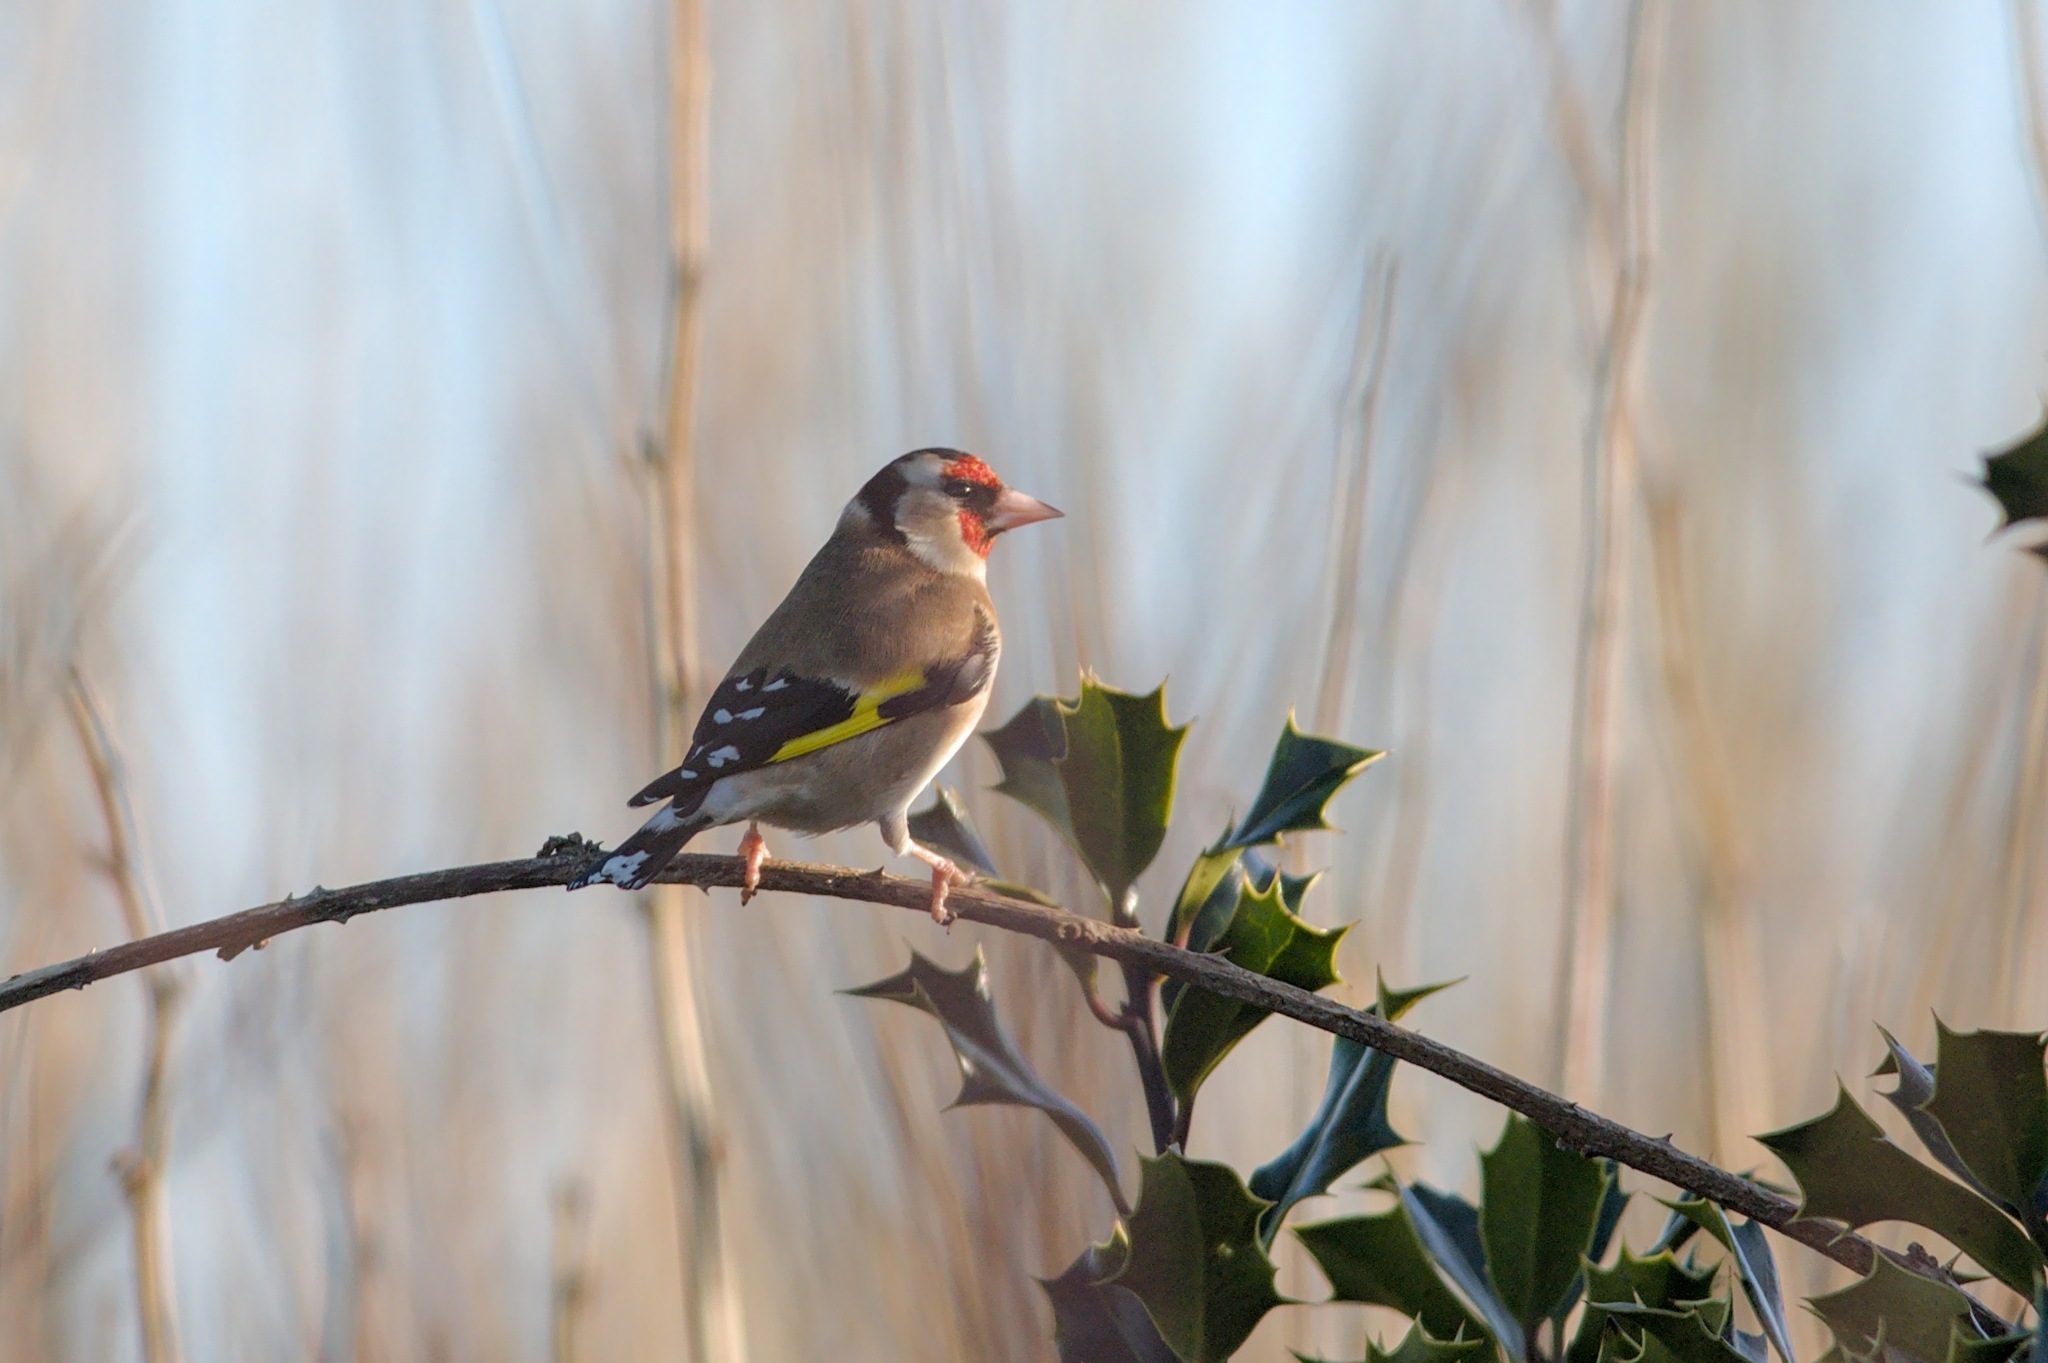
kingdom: Animalia
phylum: Chordata
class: Aves
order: Passeriformes
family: Fringillidae
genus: Carduelis
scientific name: Carduelis carduelis
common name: European goldfinch
